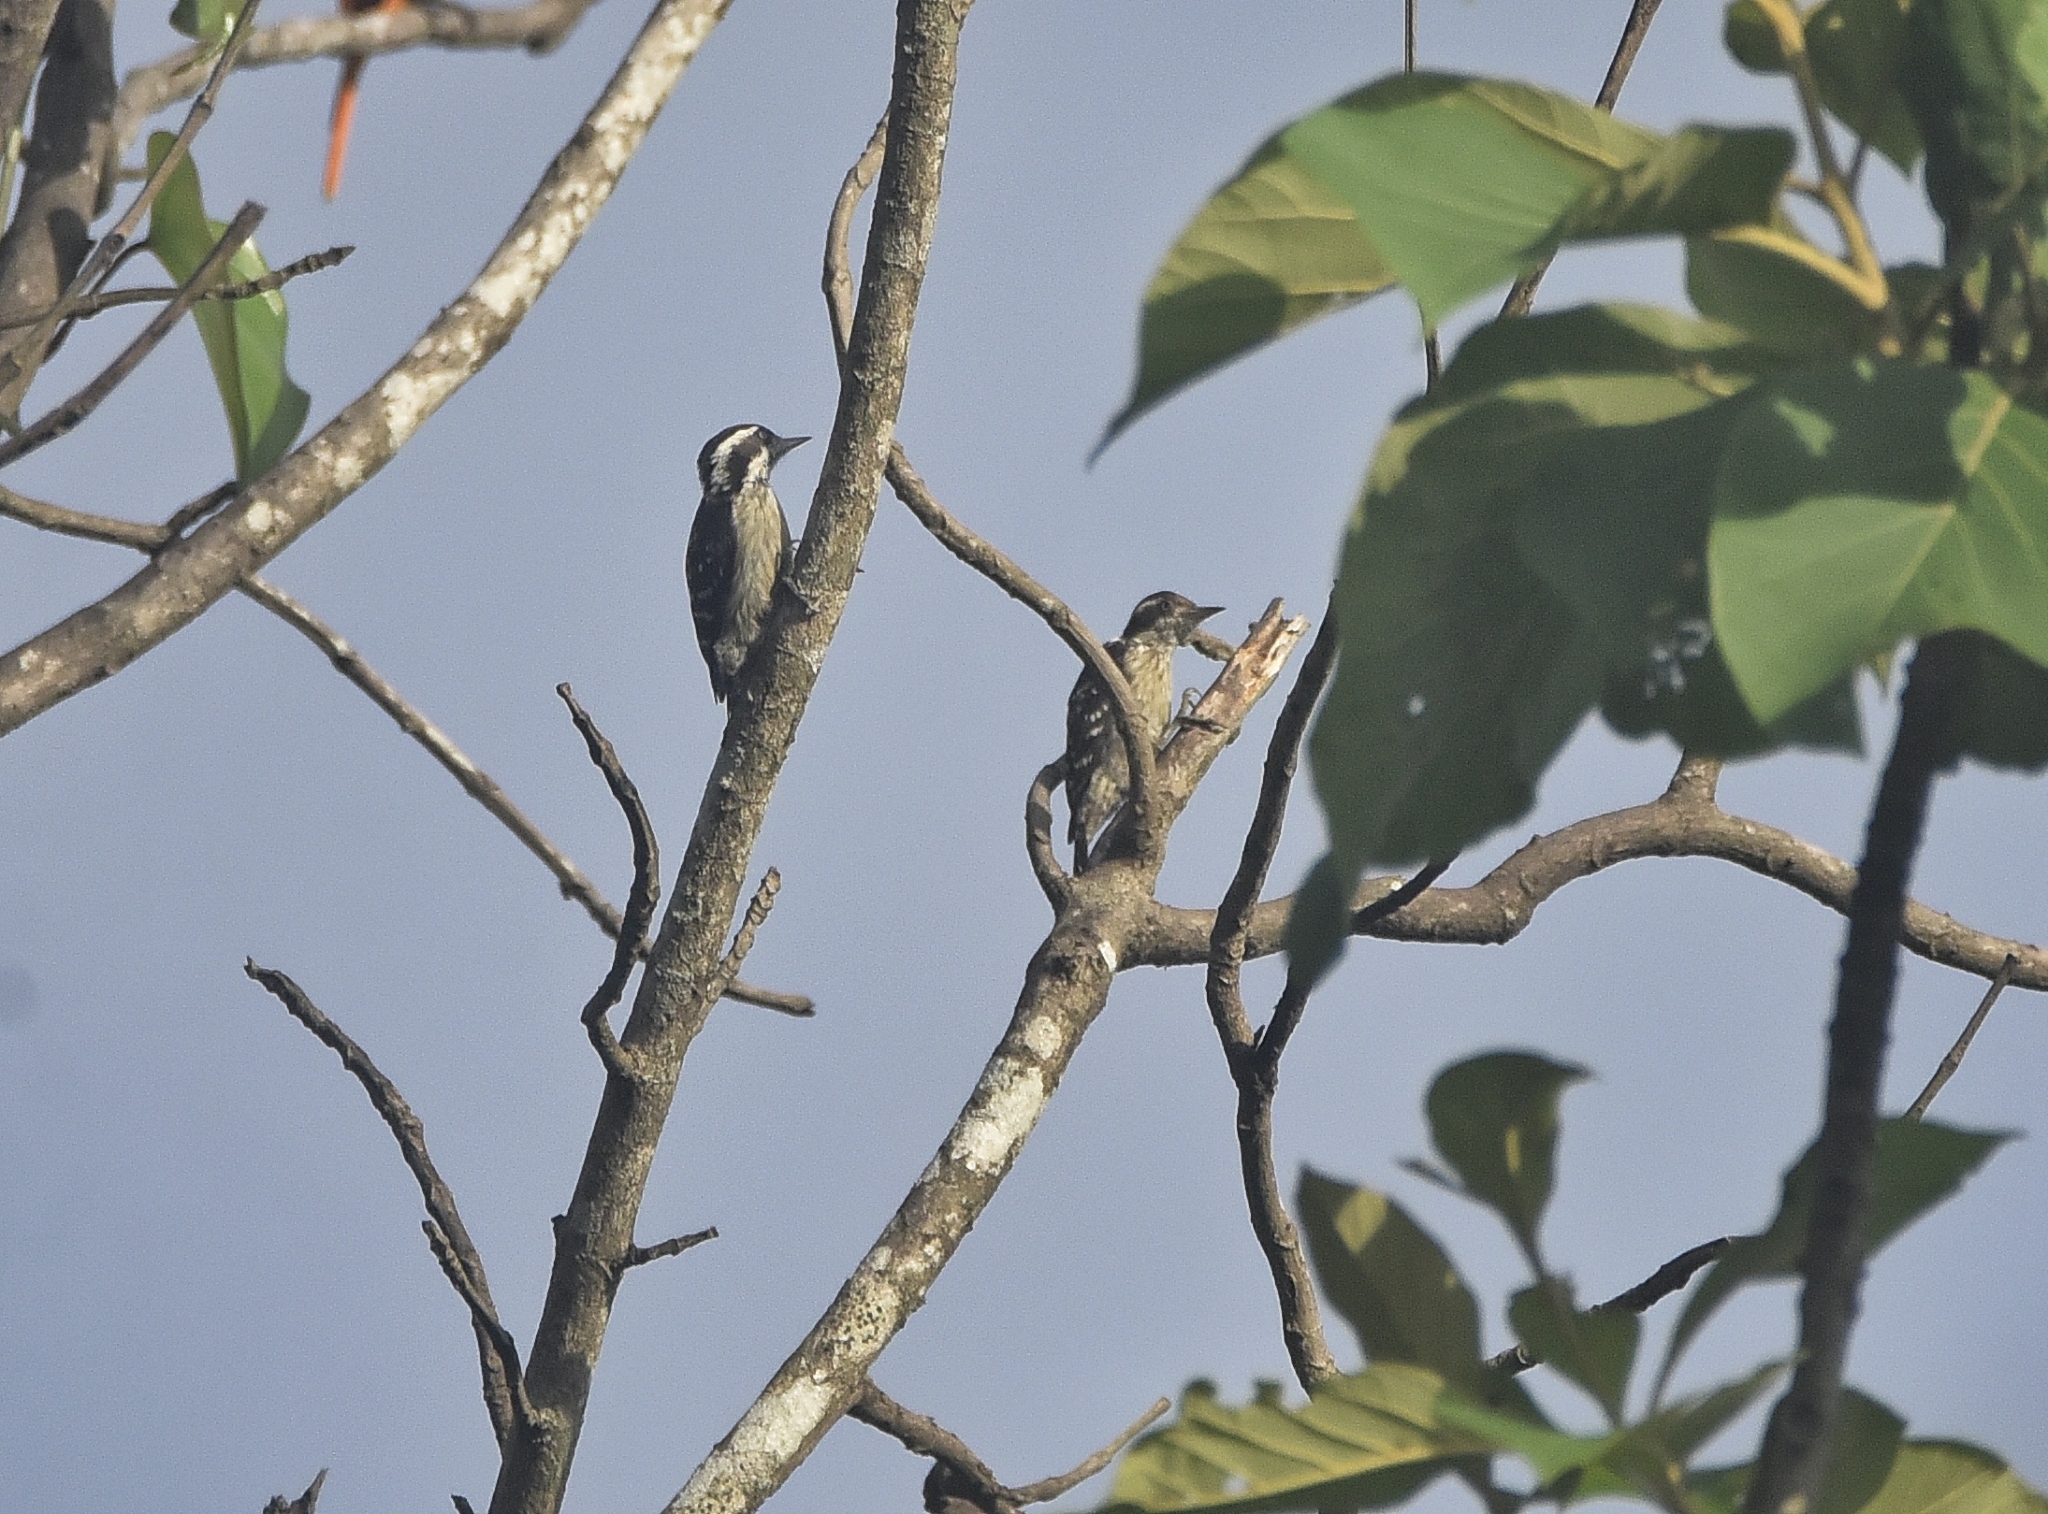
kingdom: Animalia
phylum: Chordata
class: Aves
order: Piciformes
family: Picidae
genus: Yungipicus
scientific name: Yungipicus nanus
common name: Brown-capped pygmy woodpecker
